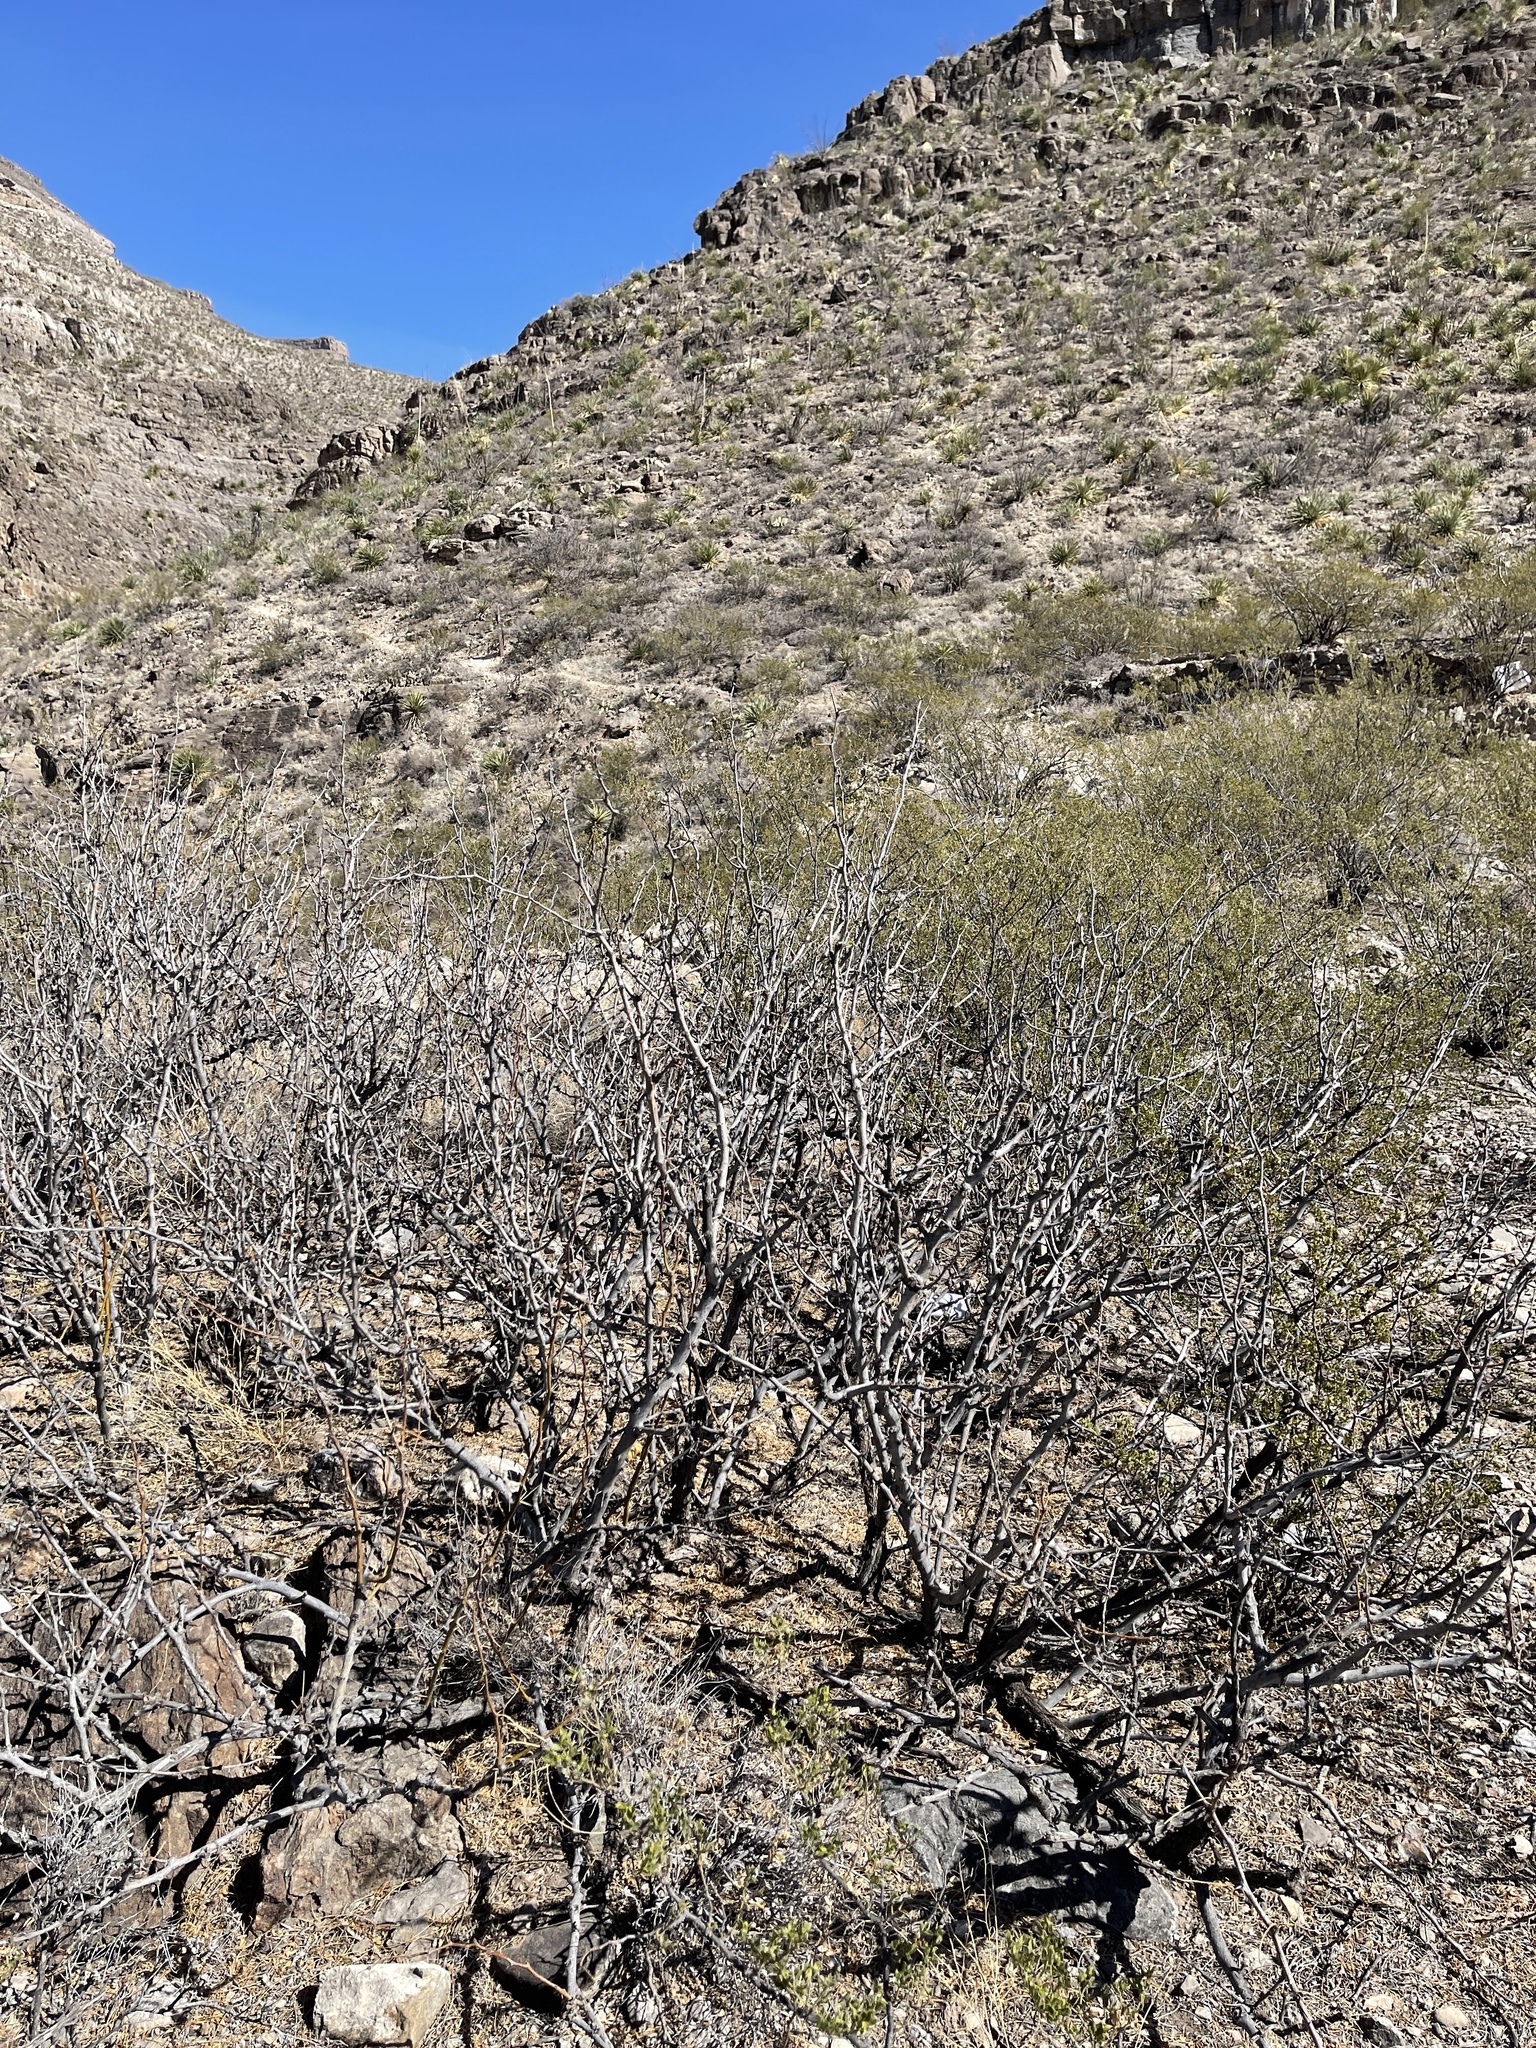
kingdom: Plantae
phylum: Tracheophyta
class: Magnoliopsida
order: Fabales
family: Fabaceae
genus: Prosopis
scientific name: Prosopis glandulosa
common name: Honey mesquite
